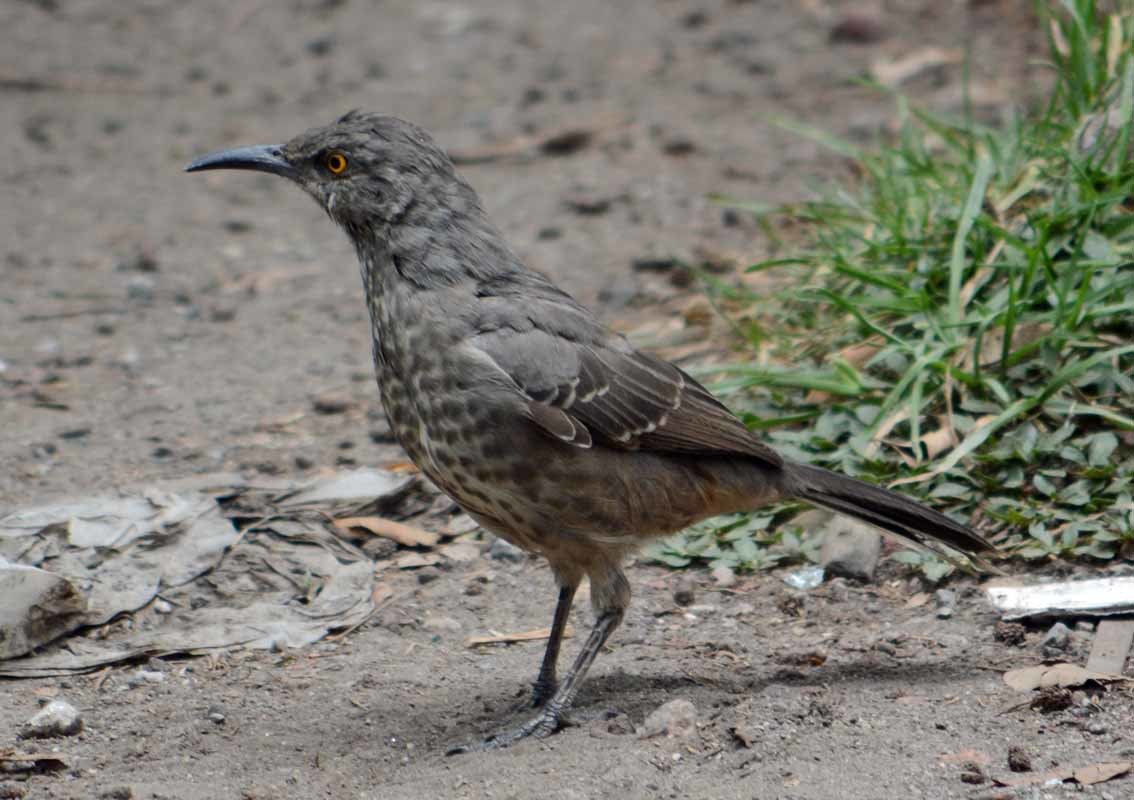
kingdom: Animalia
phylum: Chordata
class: Aves
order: Passeriformes
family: Mimidae
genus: Toxostoma
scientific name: Toxostoma curvirostre
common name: Curve-billed thrasher
